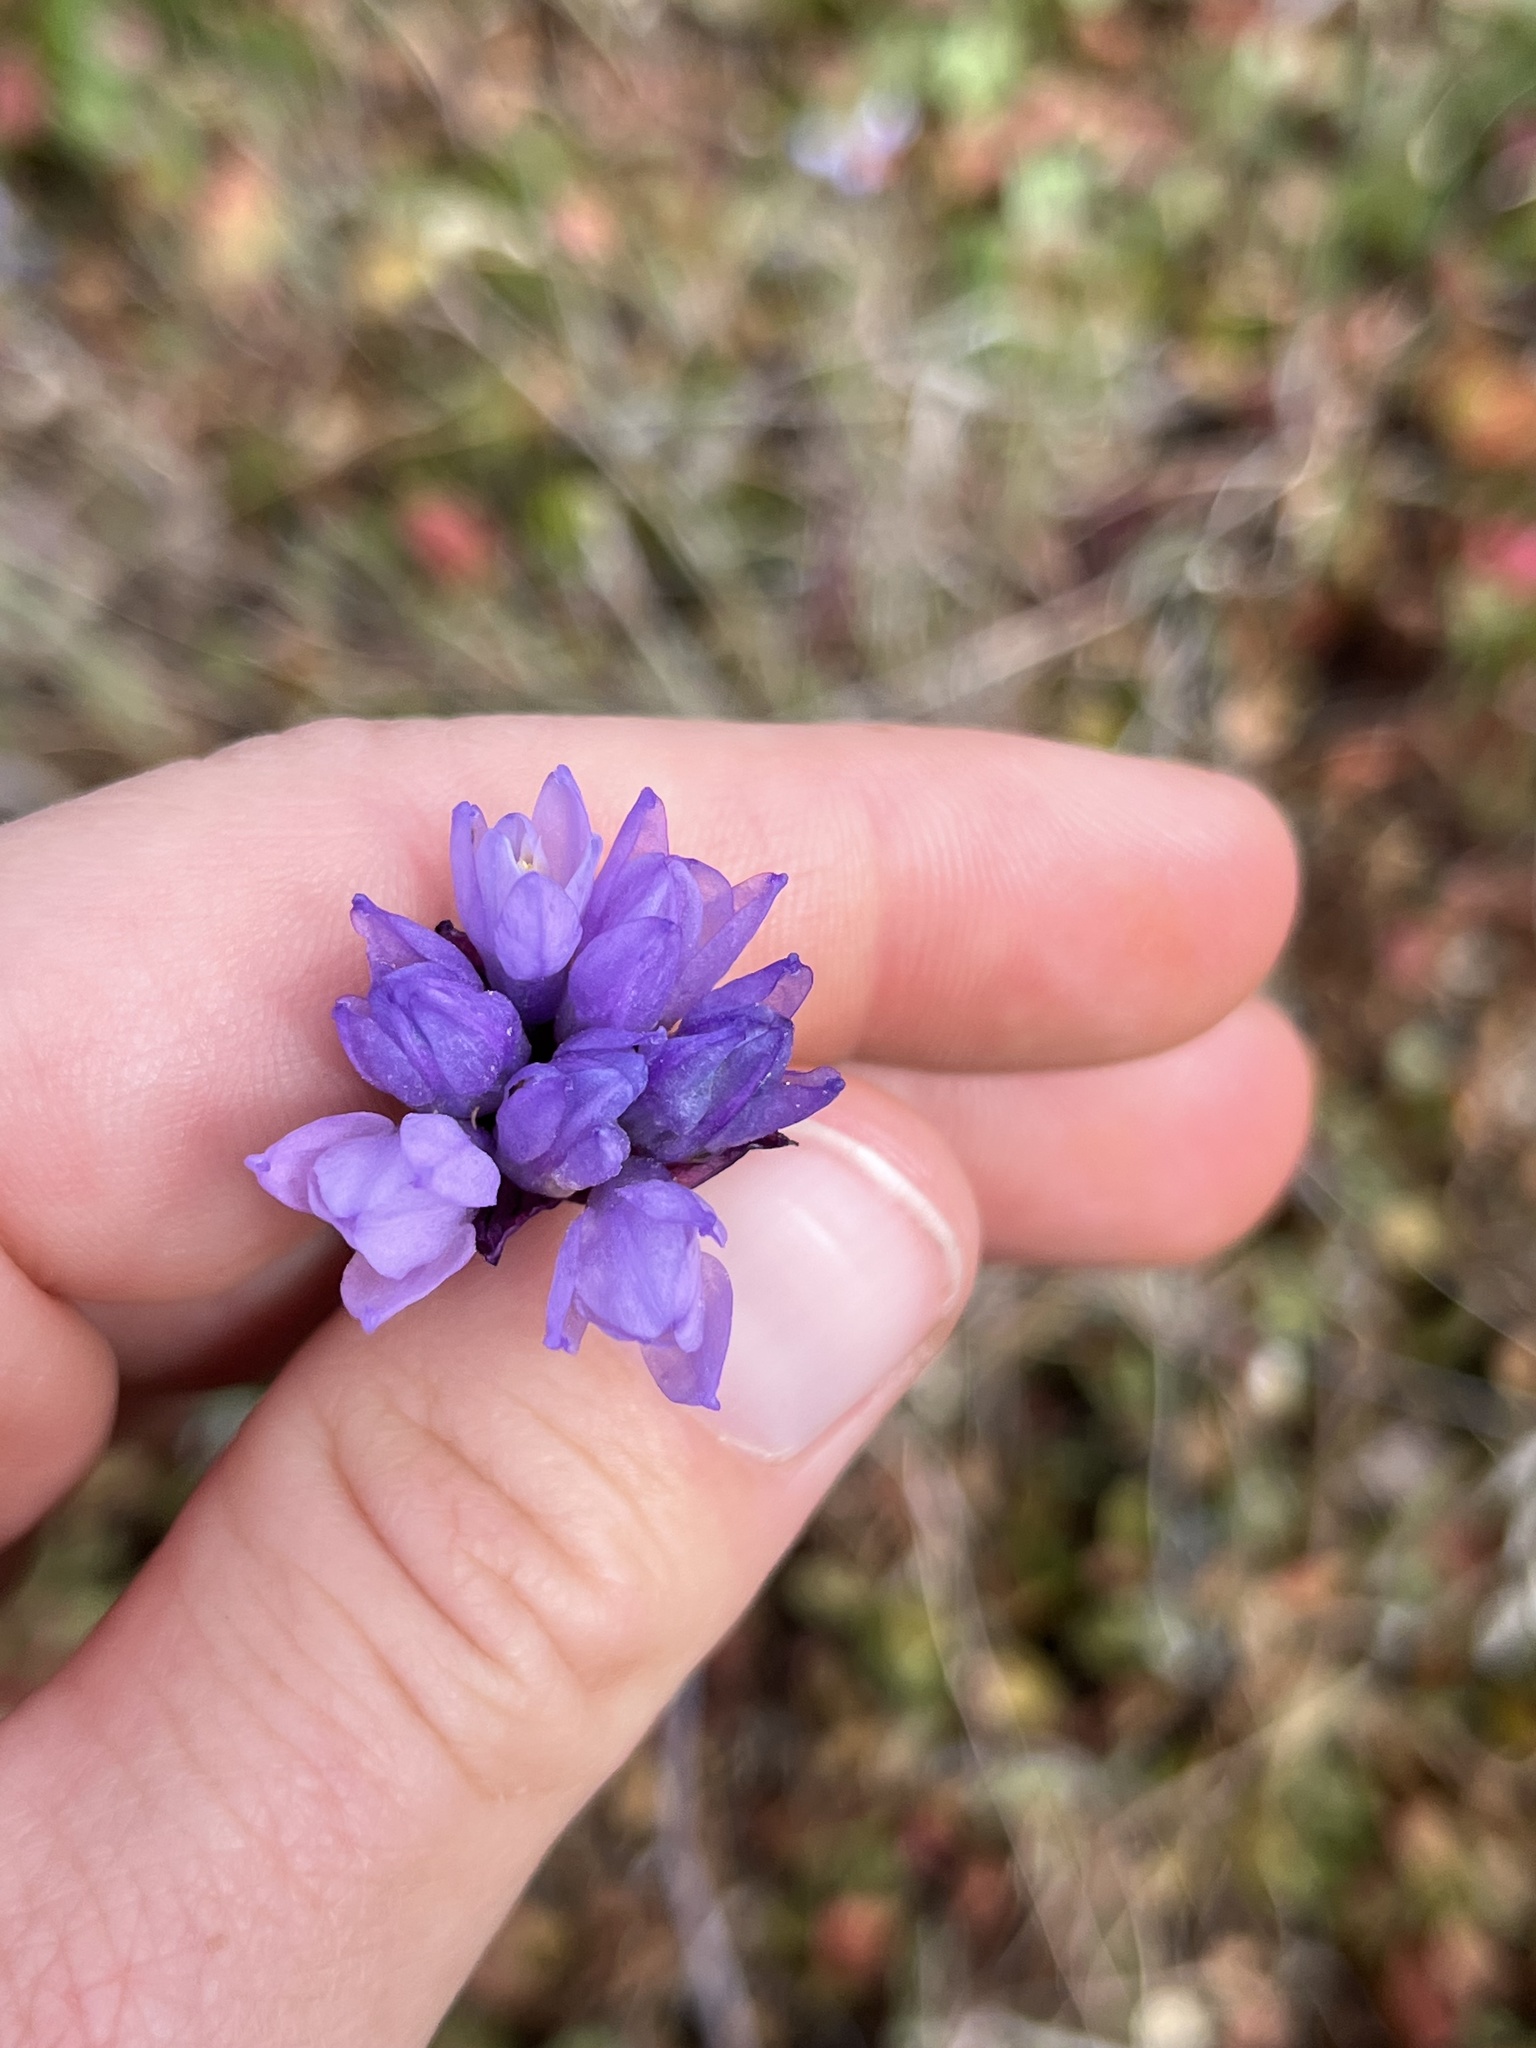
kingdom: Plantae
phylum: Tracheophyta
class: Liliopsida
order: Asparagales
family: Asparagaceae
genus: Dipterostemon
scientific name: Dipterostemon capitatus
